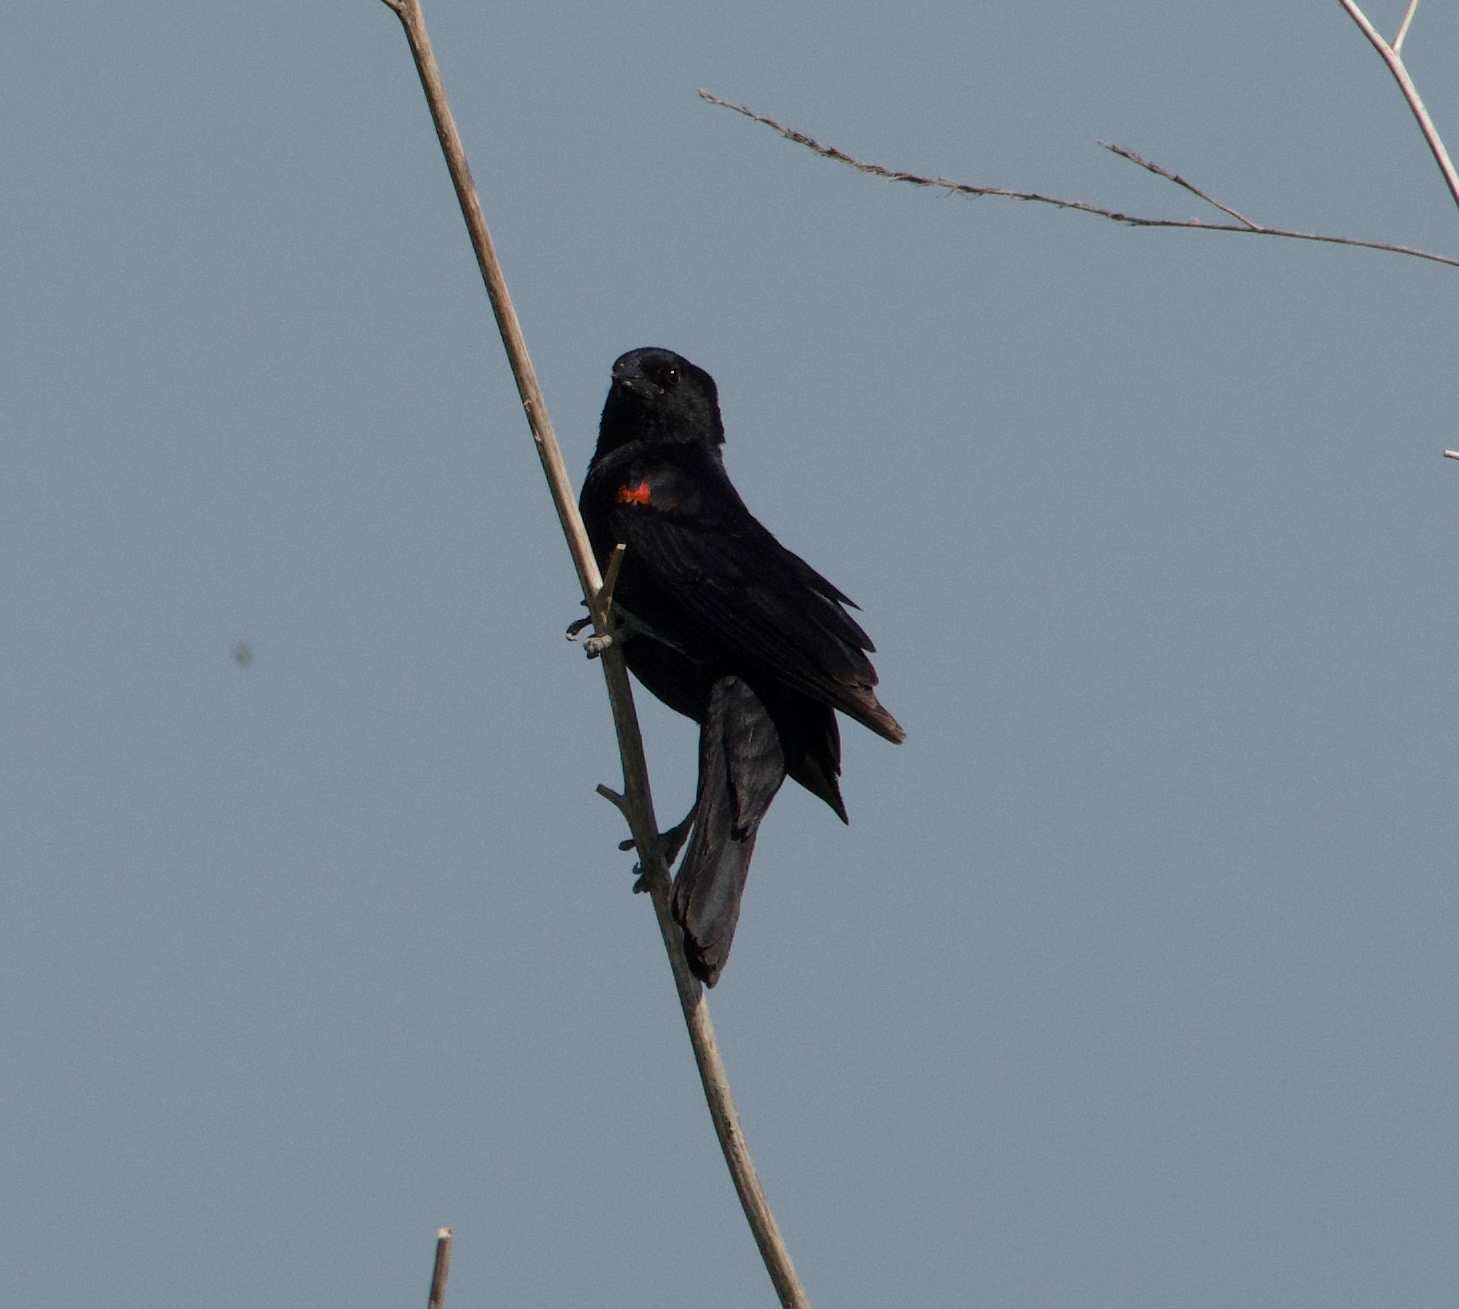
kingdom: Animalia
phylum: Chordata
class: Aves
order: Passeriformes
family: Icteridae
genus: Agelaius
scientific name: Agelaius phoeniceus
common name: Red-winged blackbird
